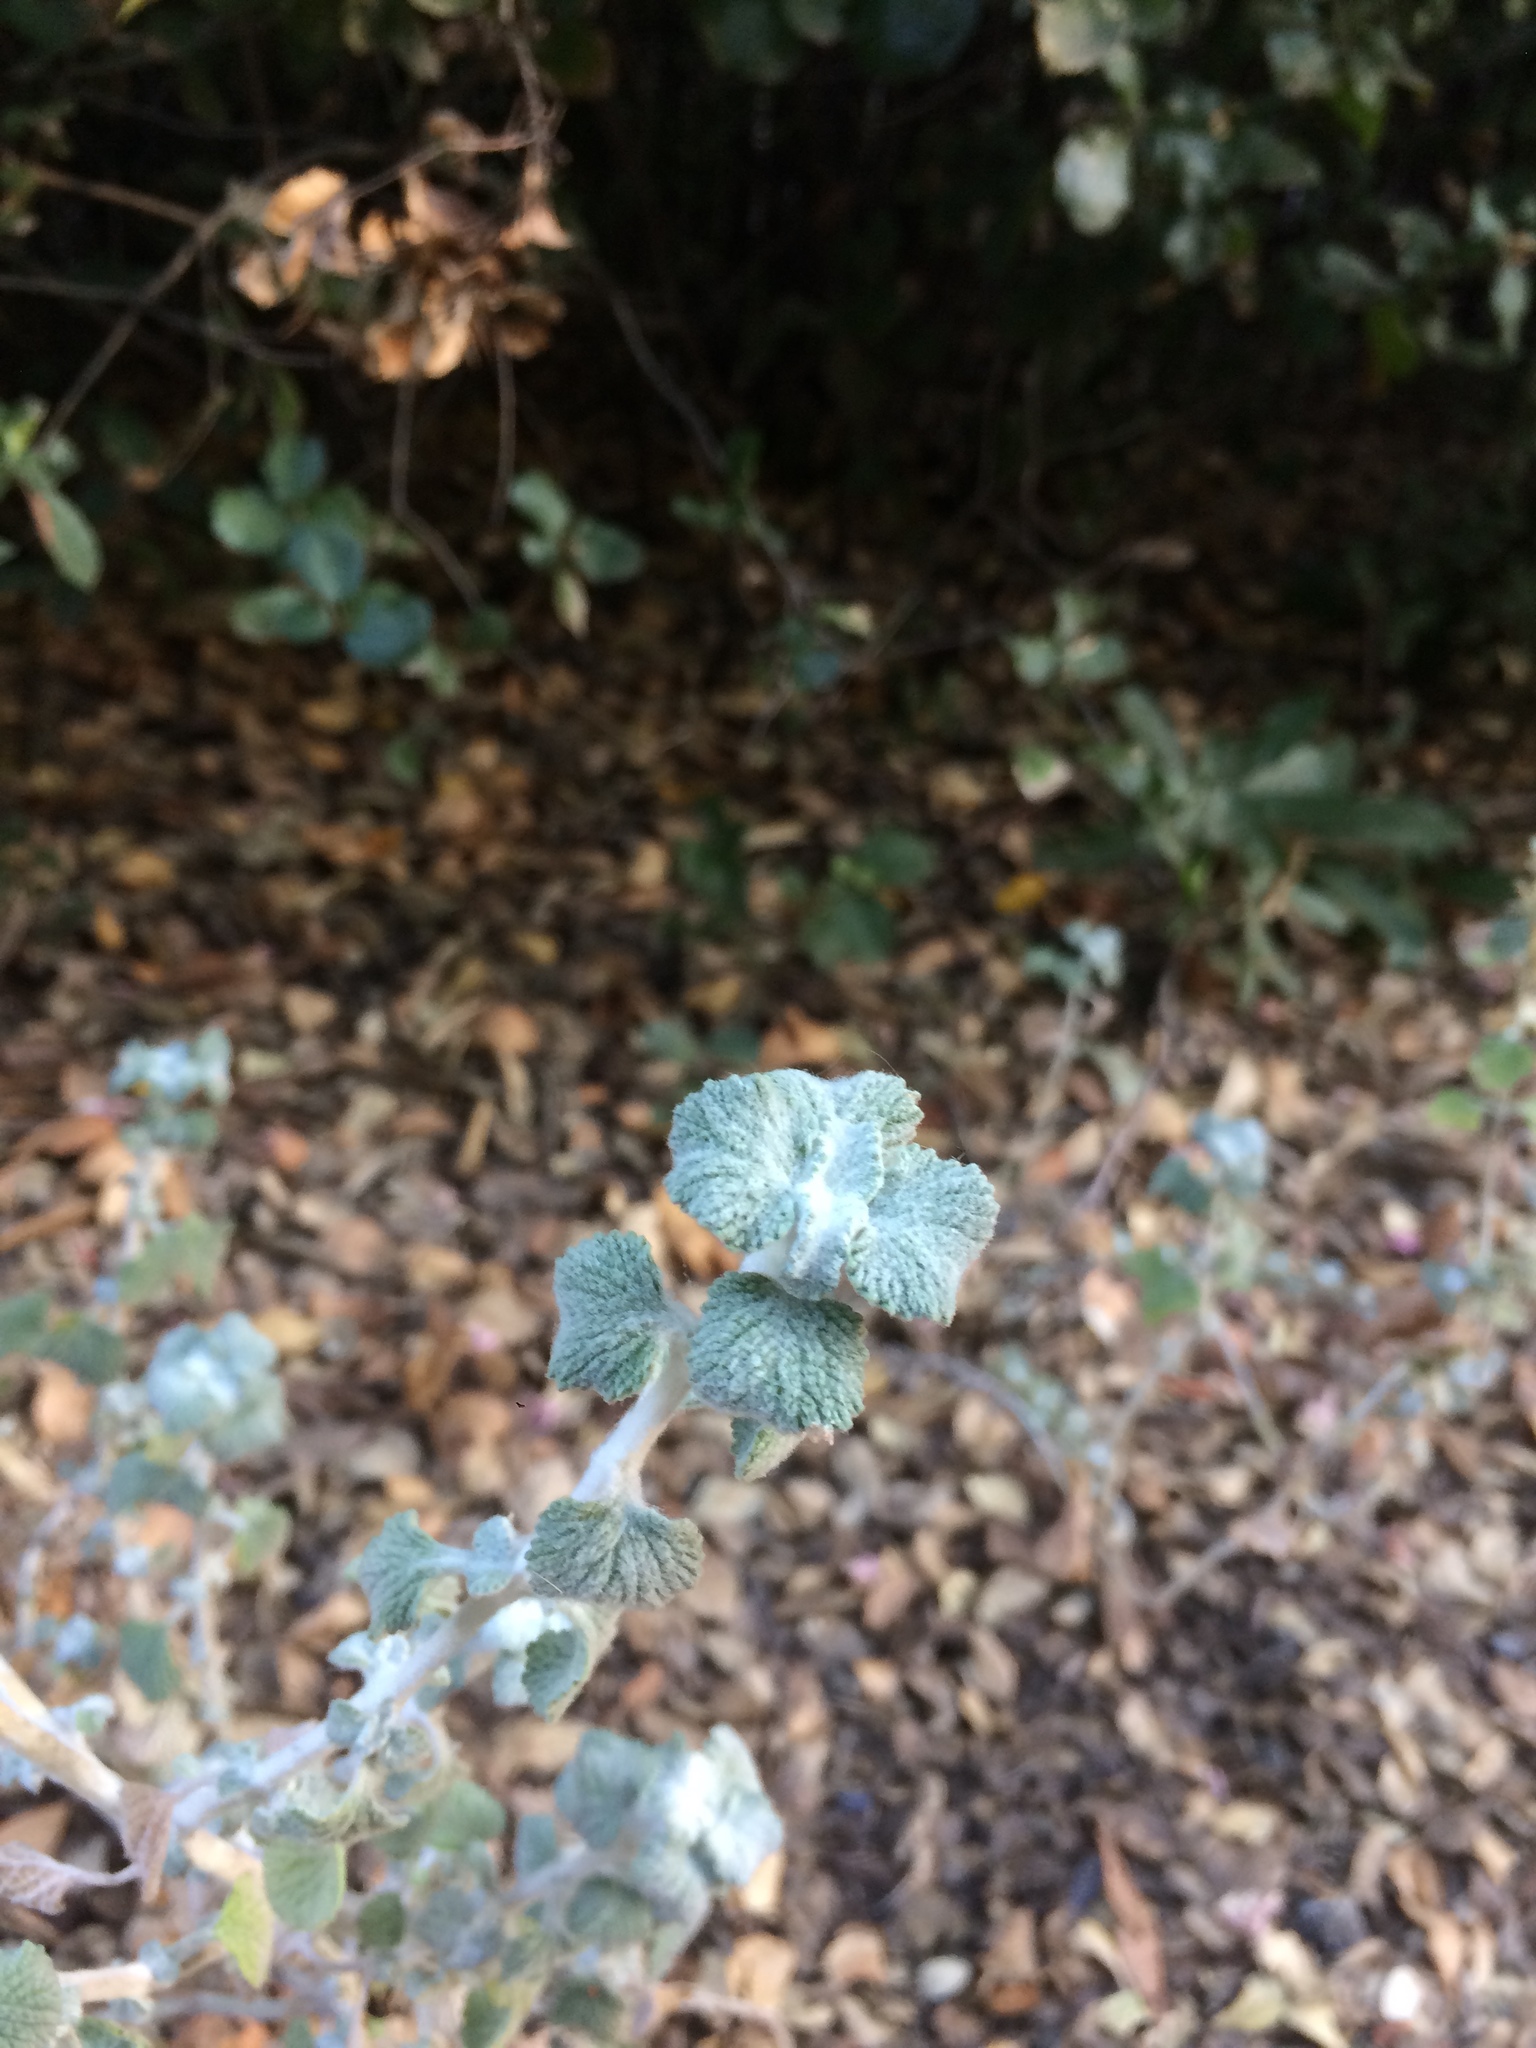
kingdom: Plantae
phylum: Tracheophyta
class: Magnoliopsida
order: Lamiales
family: Lamiaceae
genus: Marrubium
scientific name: Marrubium vulgare
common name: Horehound
